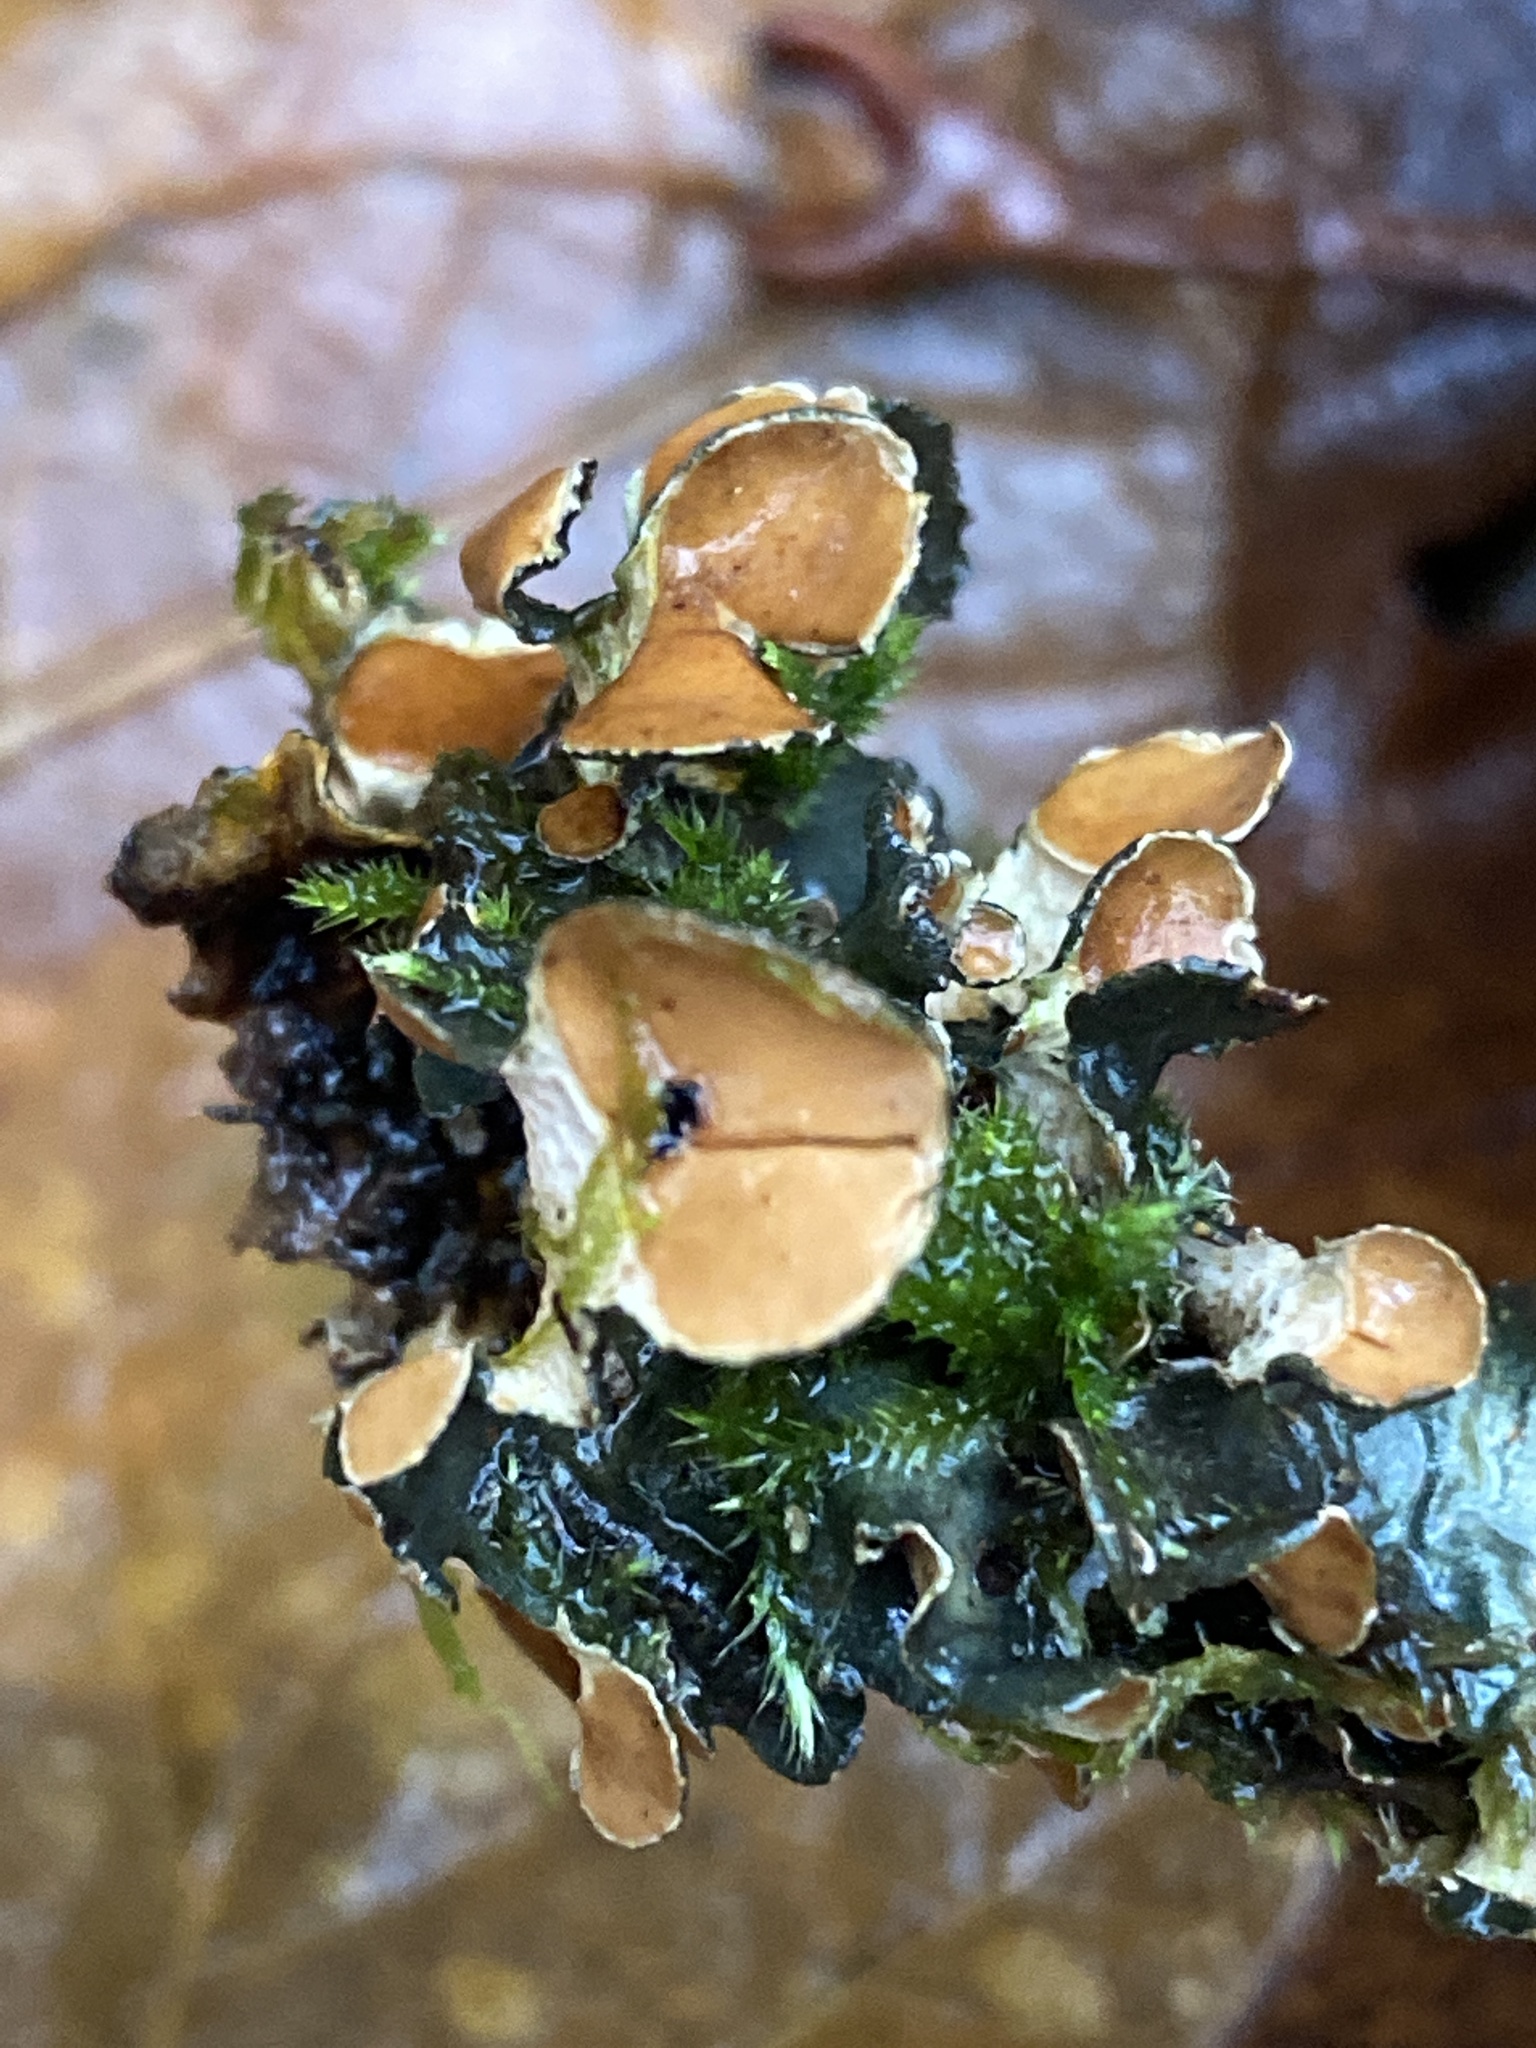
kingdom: Fungi
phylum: Ascomycota
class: Lecanoromycetes
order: Peltigerales
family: Nephromataceae
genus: Nephroma
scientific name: Nephroma resupinatum
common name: Pimpled kidney lichen
